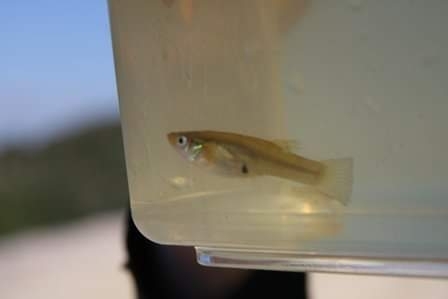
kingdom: Animalia
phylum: Chordata
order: Cyprinodontiformes
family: Poeciliidae
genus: Gambusia
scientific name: Gambusia holbrooki
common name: Eastern mosquitofish
